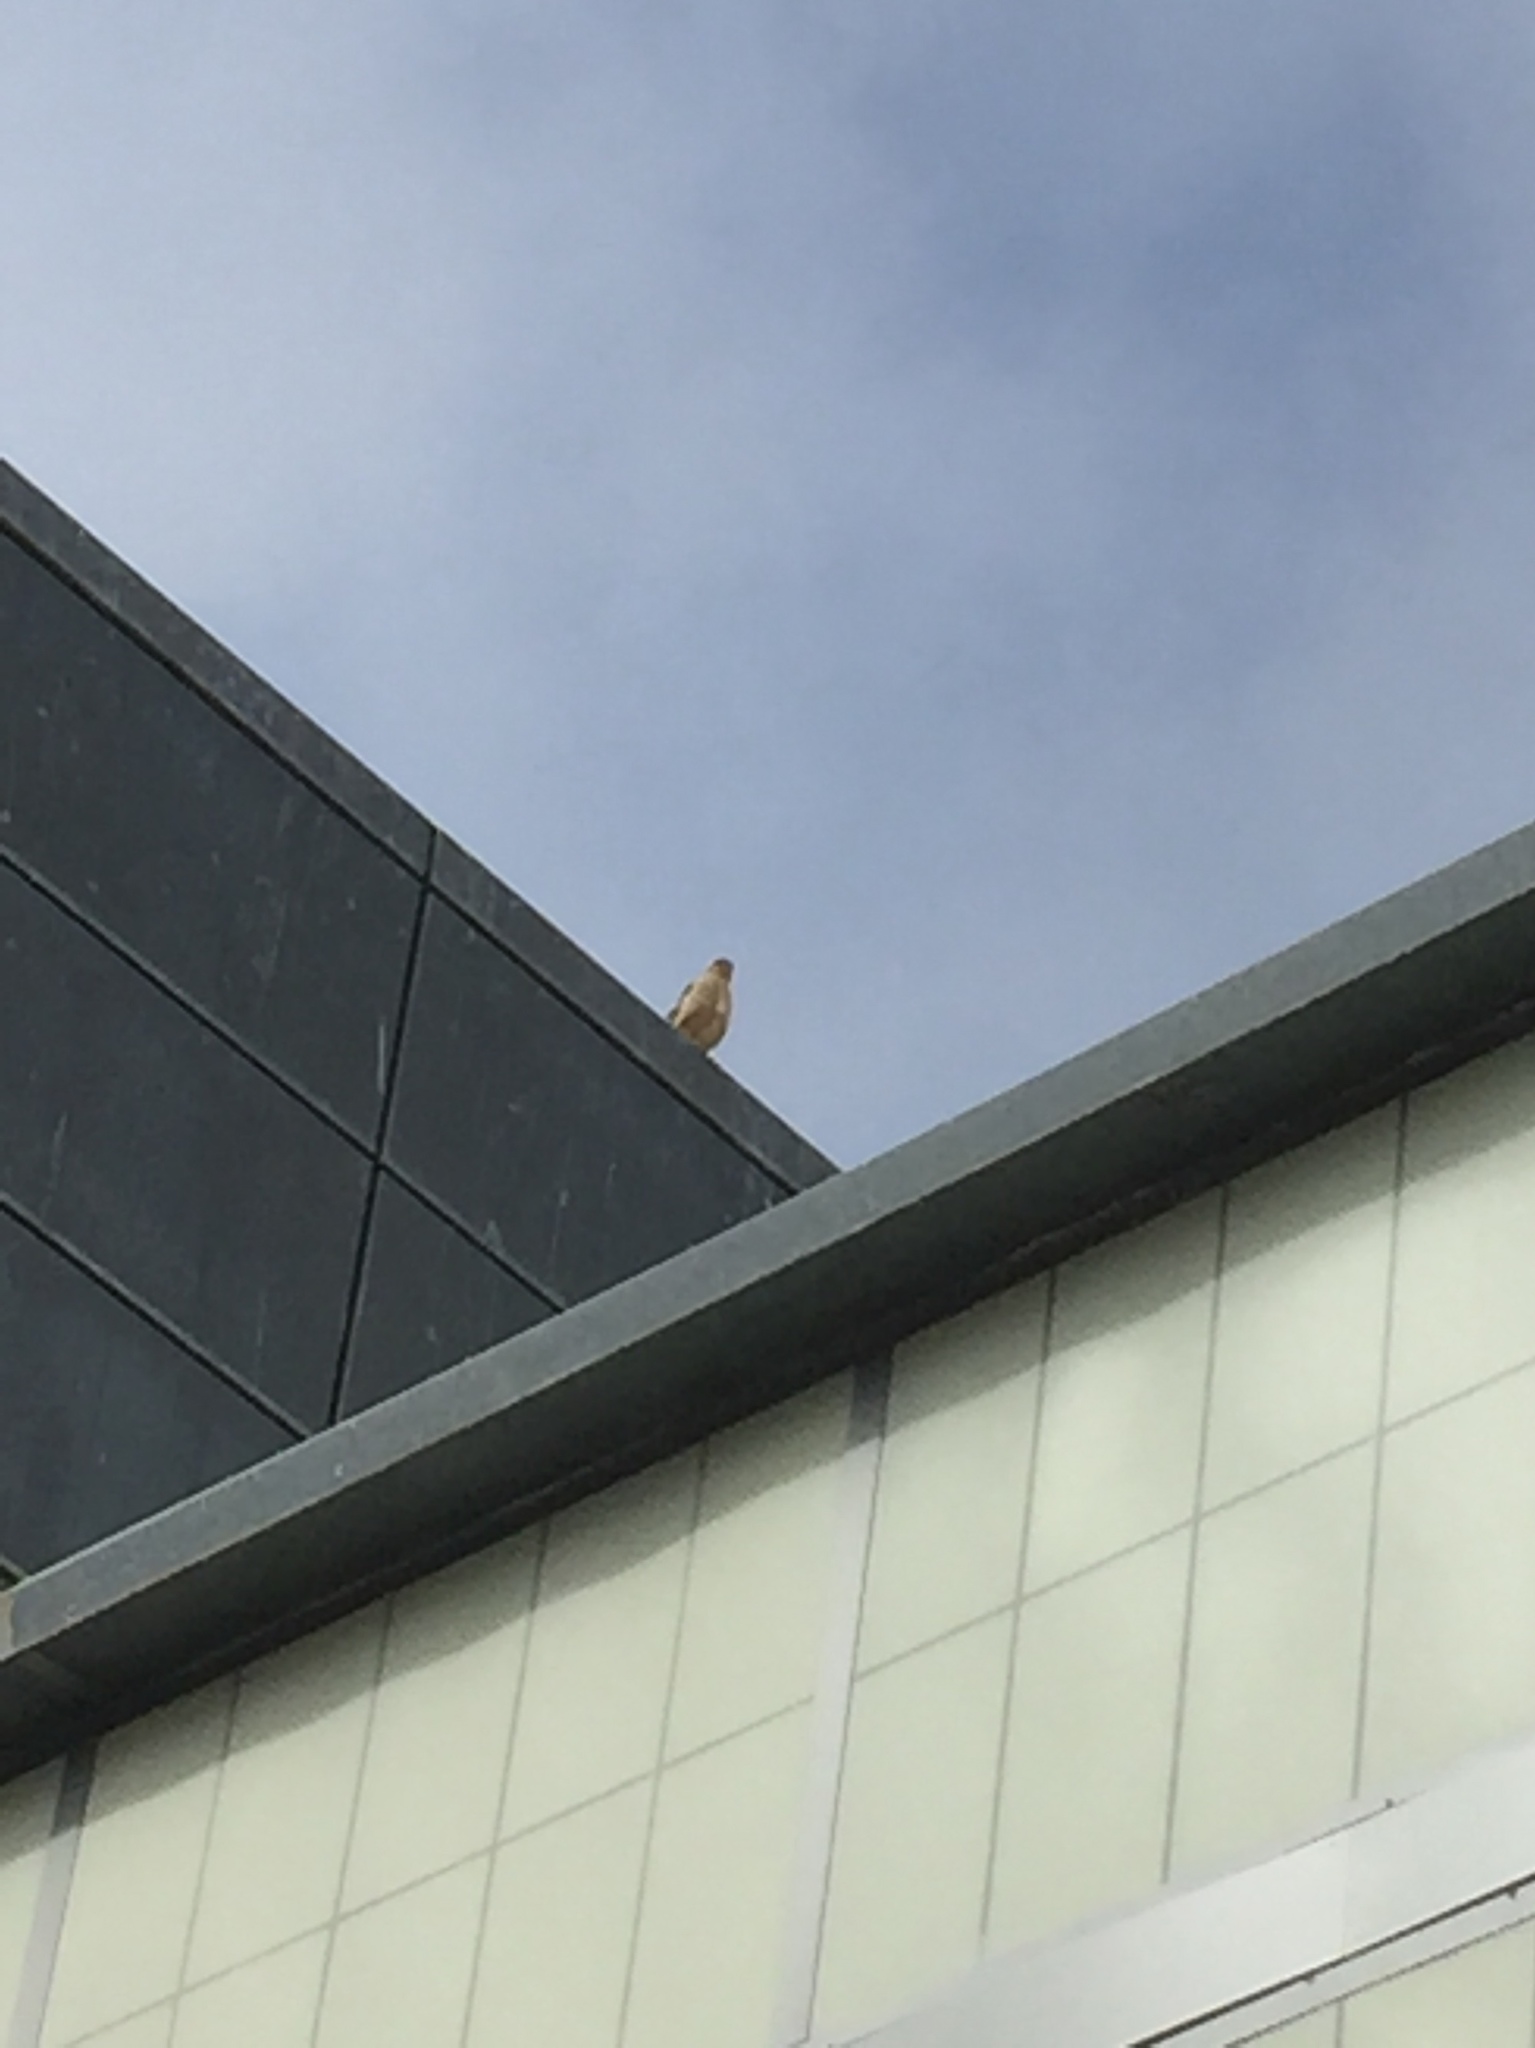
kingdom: Animalia
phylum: Chordata
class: Aves
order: Accipitriformes
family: Accipitridae
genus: Accipiter
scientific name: Accipiter cooperii
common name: Cooper's hawk
